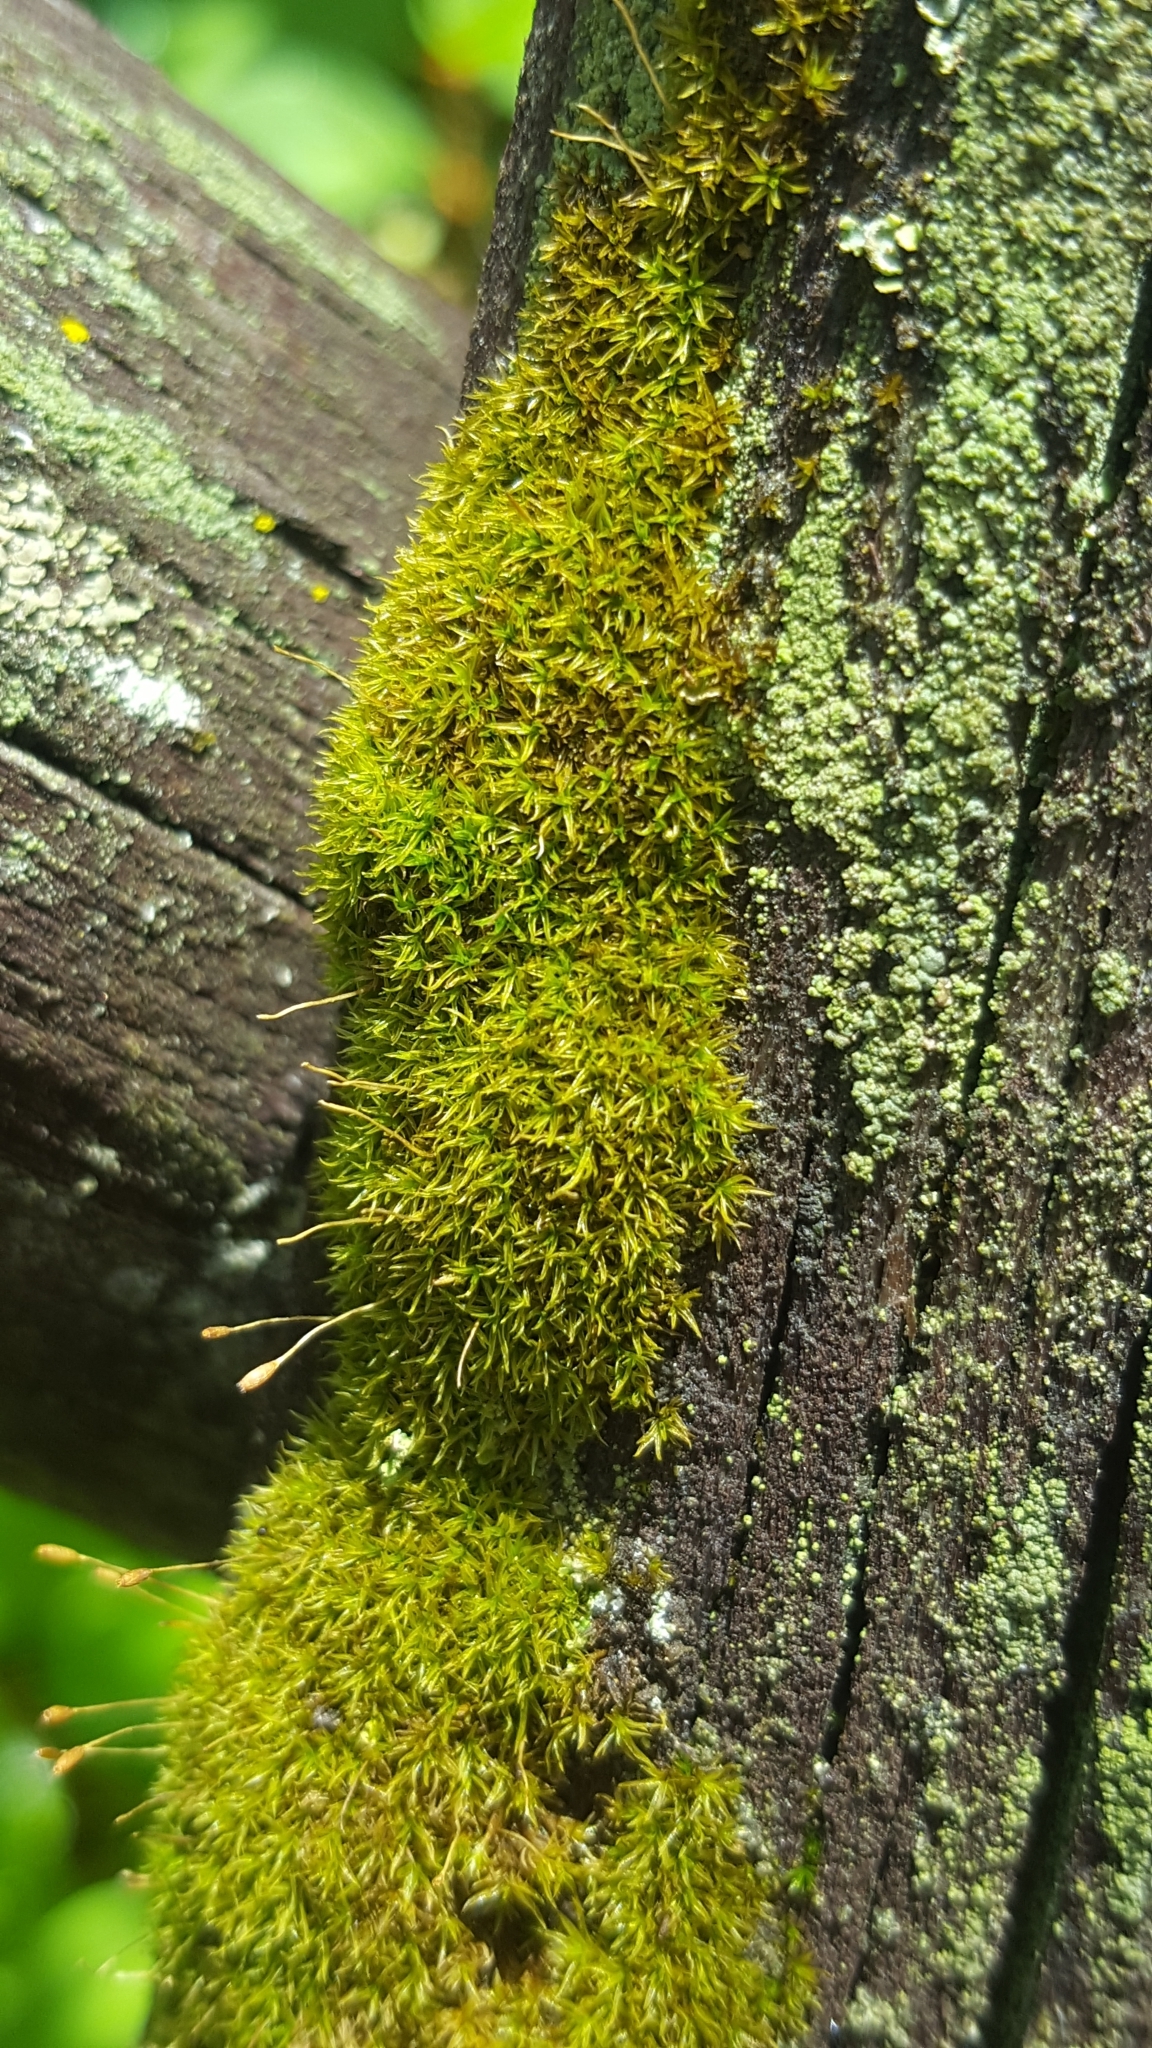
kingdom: Plantae
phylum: Bryophyta
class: Bryopsida
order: Dicranales
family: Rhabdoweisiaceae
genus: Dicranoweisia
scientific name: Dicranoweisia cirrata
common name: Common pincushion
